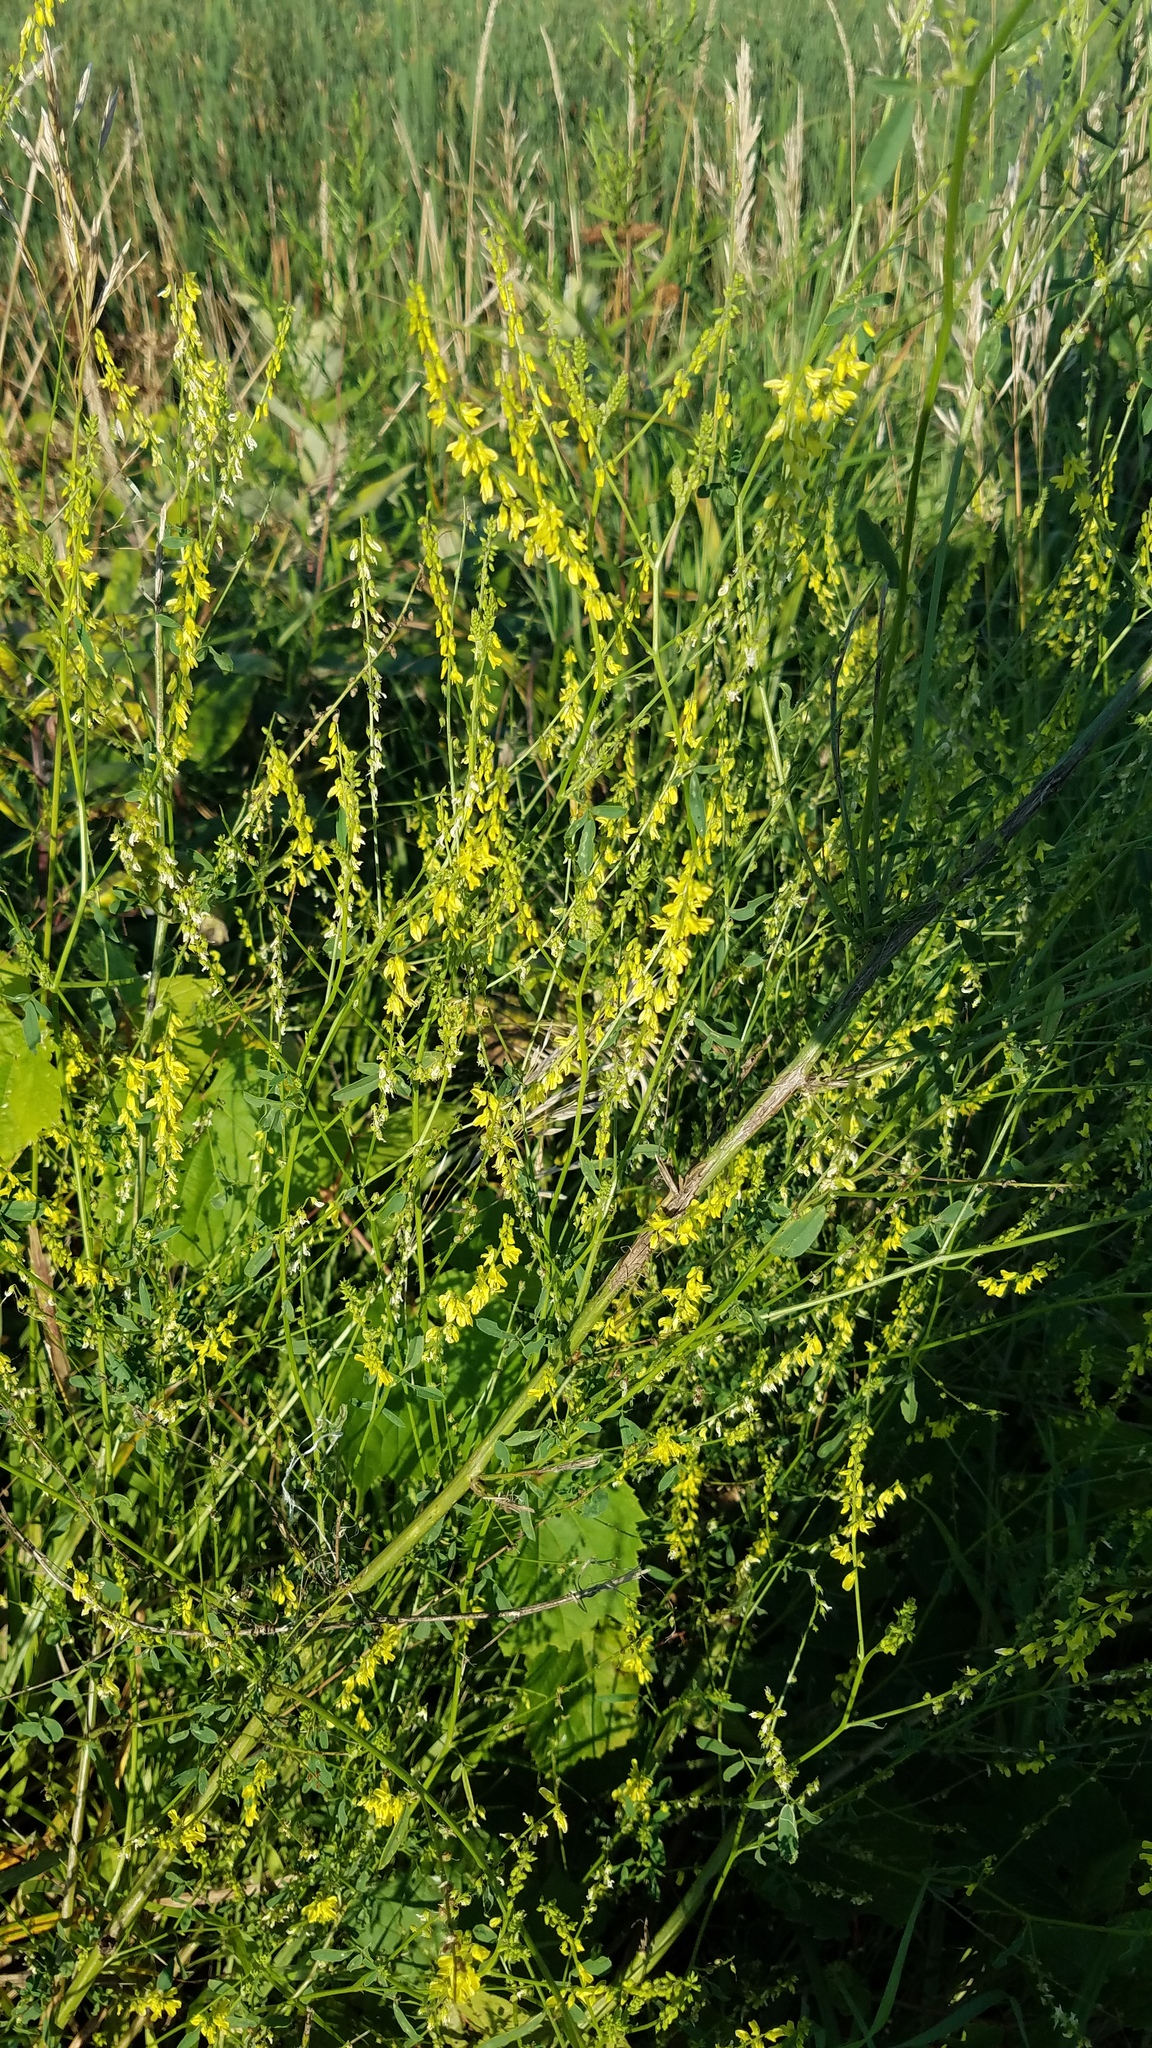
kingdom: Plantae
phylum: Tracheophyta
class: Magnoliopsida
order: Fabales
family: Fabaceae
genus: Melilotus
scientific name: Melilotus officinalis
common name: Sweetclover
